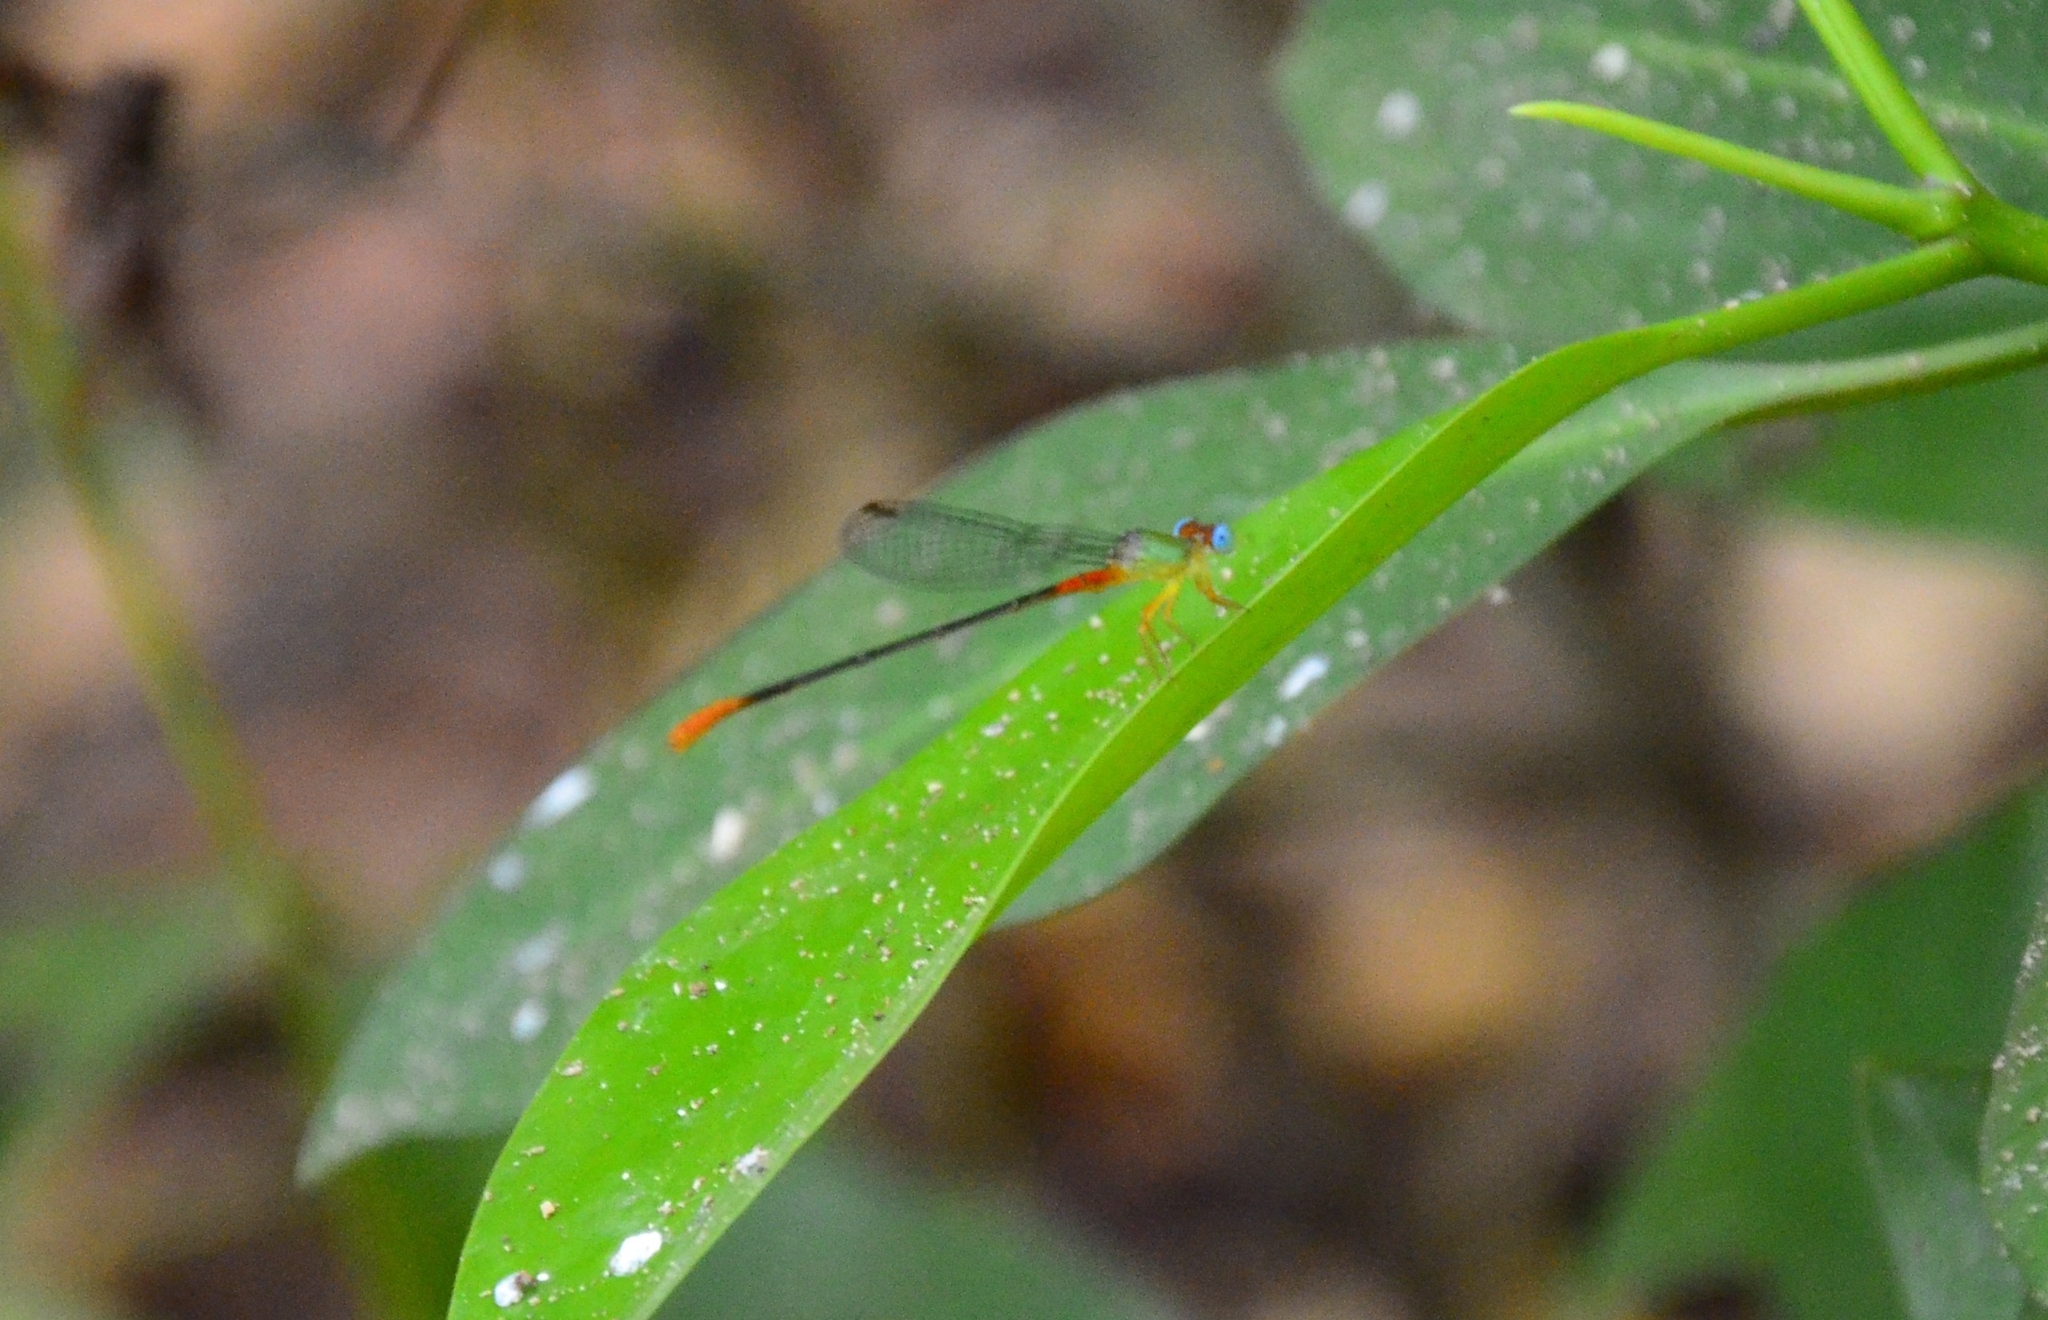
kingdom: Animalia
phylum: Arthropoda
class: Insecta
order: Odonata
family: Coenagrionidae
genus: Ceriagrion
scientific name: Ceriagrion cerinorubellum
